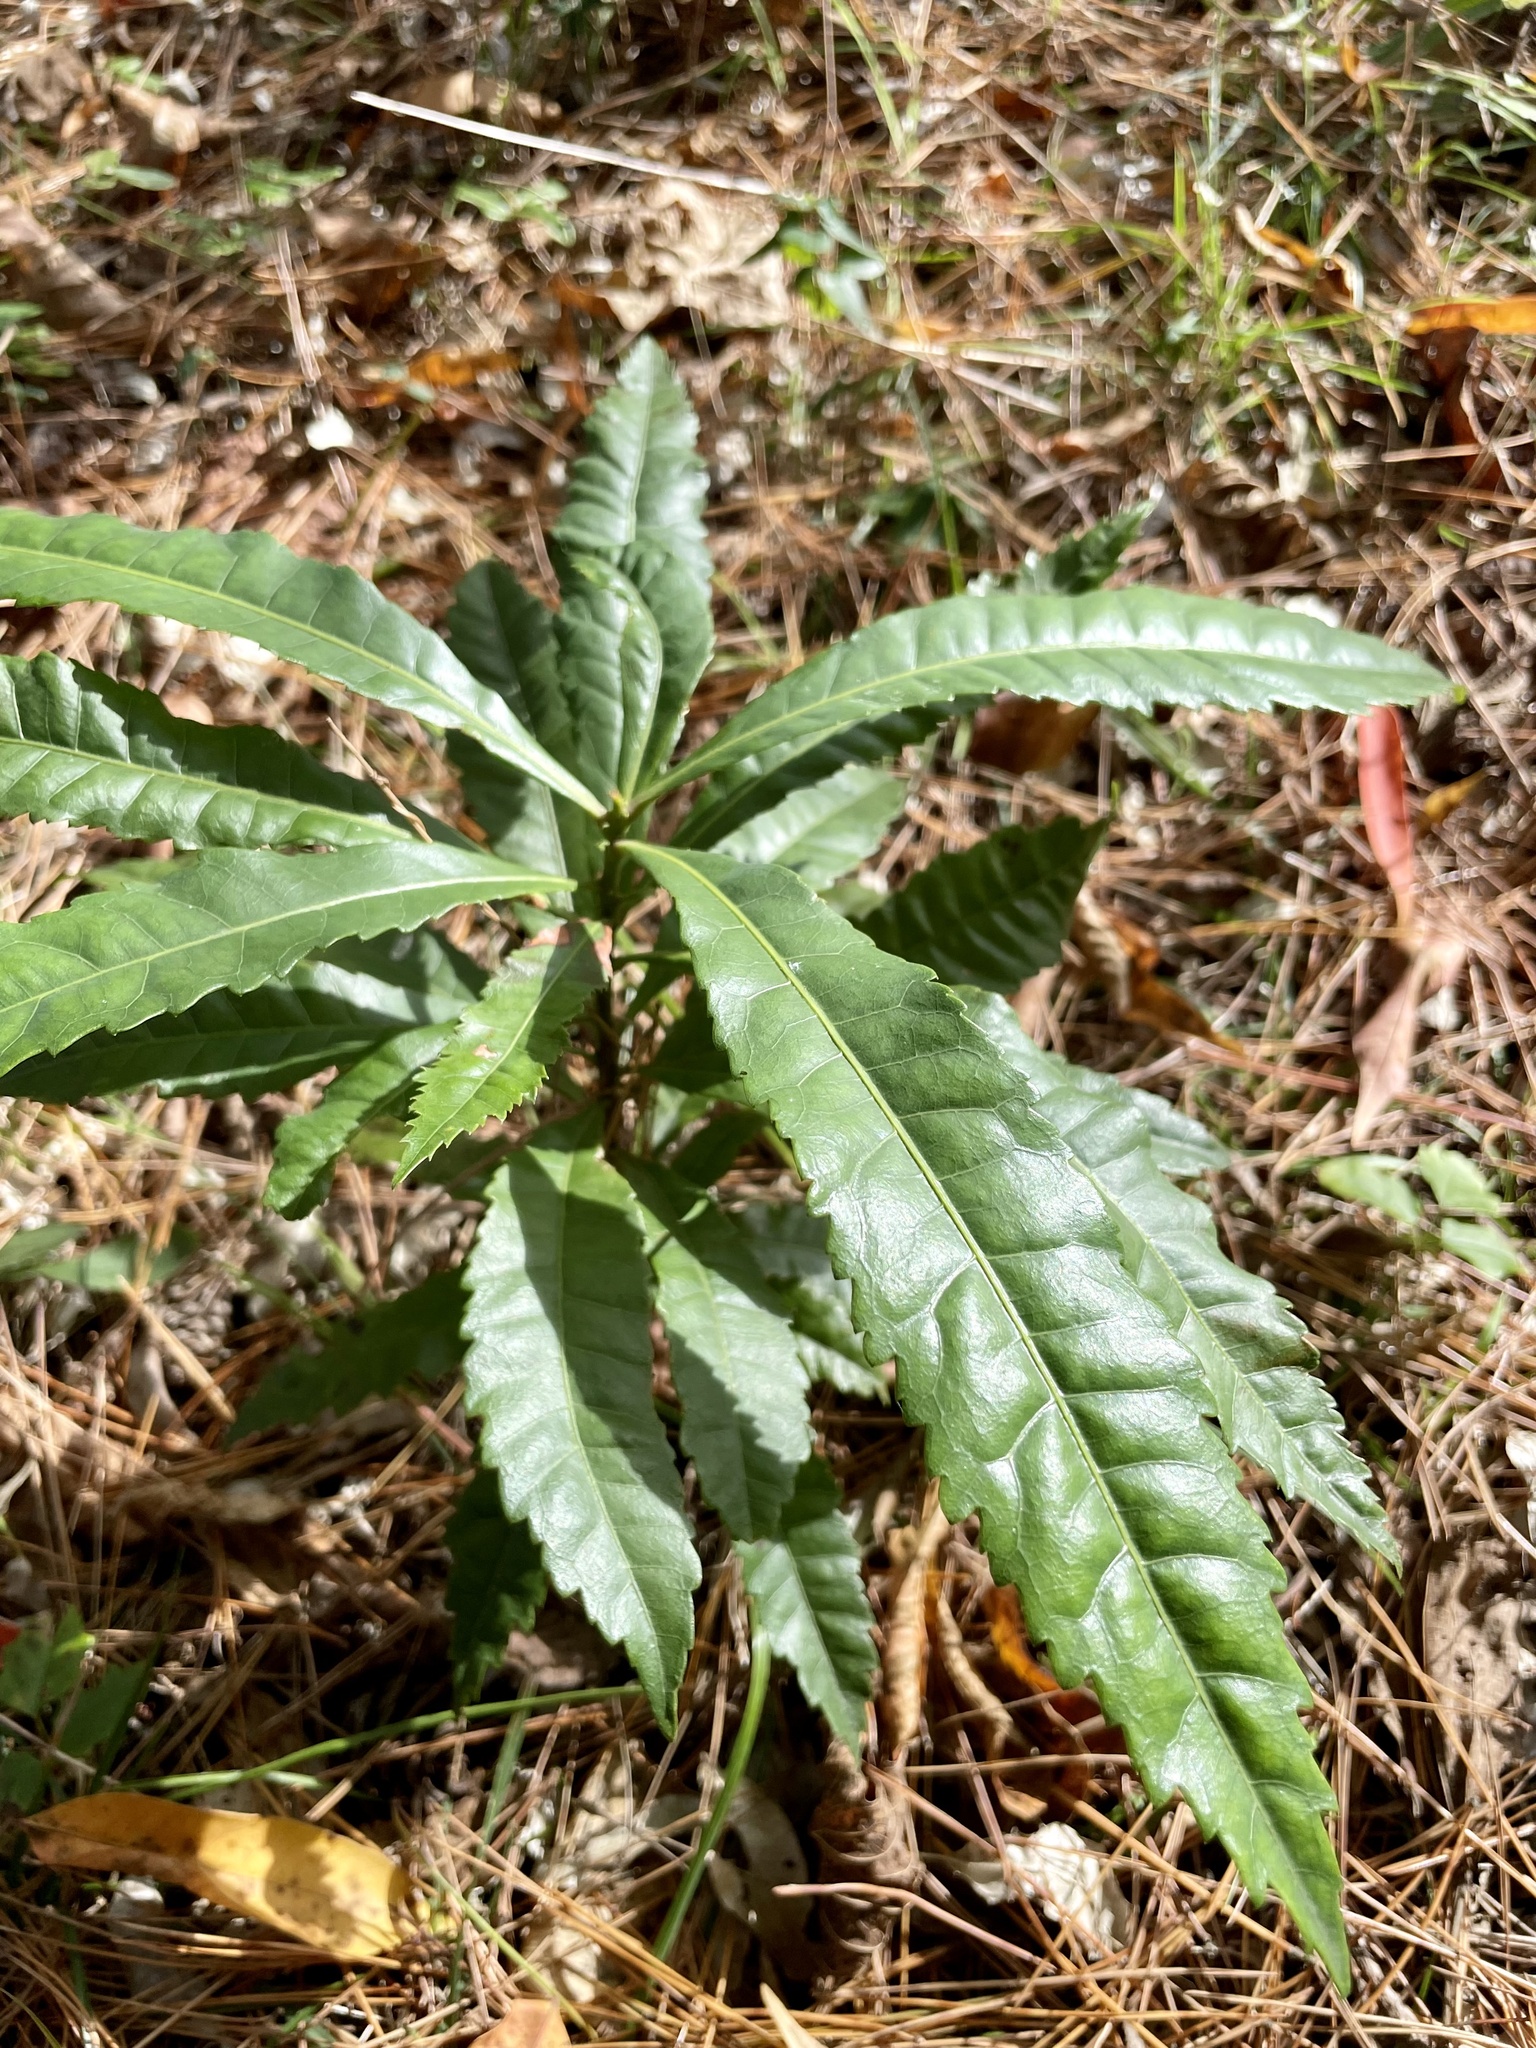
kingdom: Plantae
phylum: Tracheophyta
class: Magnoliopsida
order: Fagales
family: Myricaceae
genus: Morella
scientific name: Morella rubra
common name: Red bayberry
